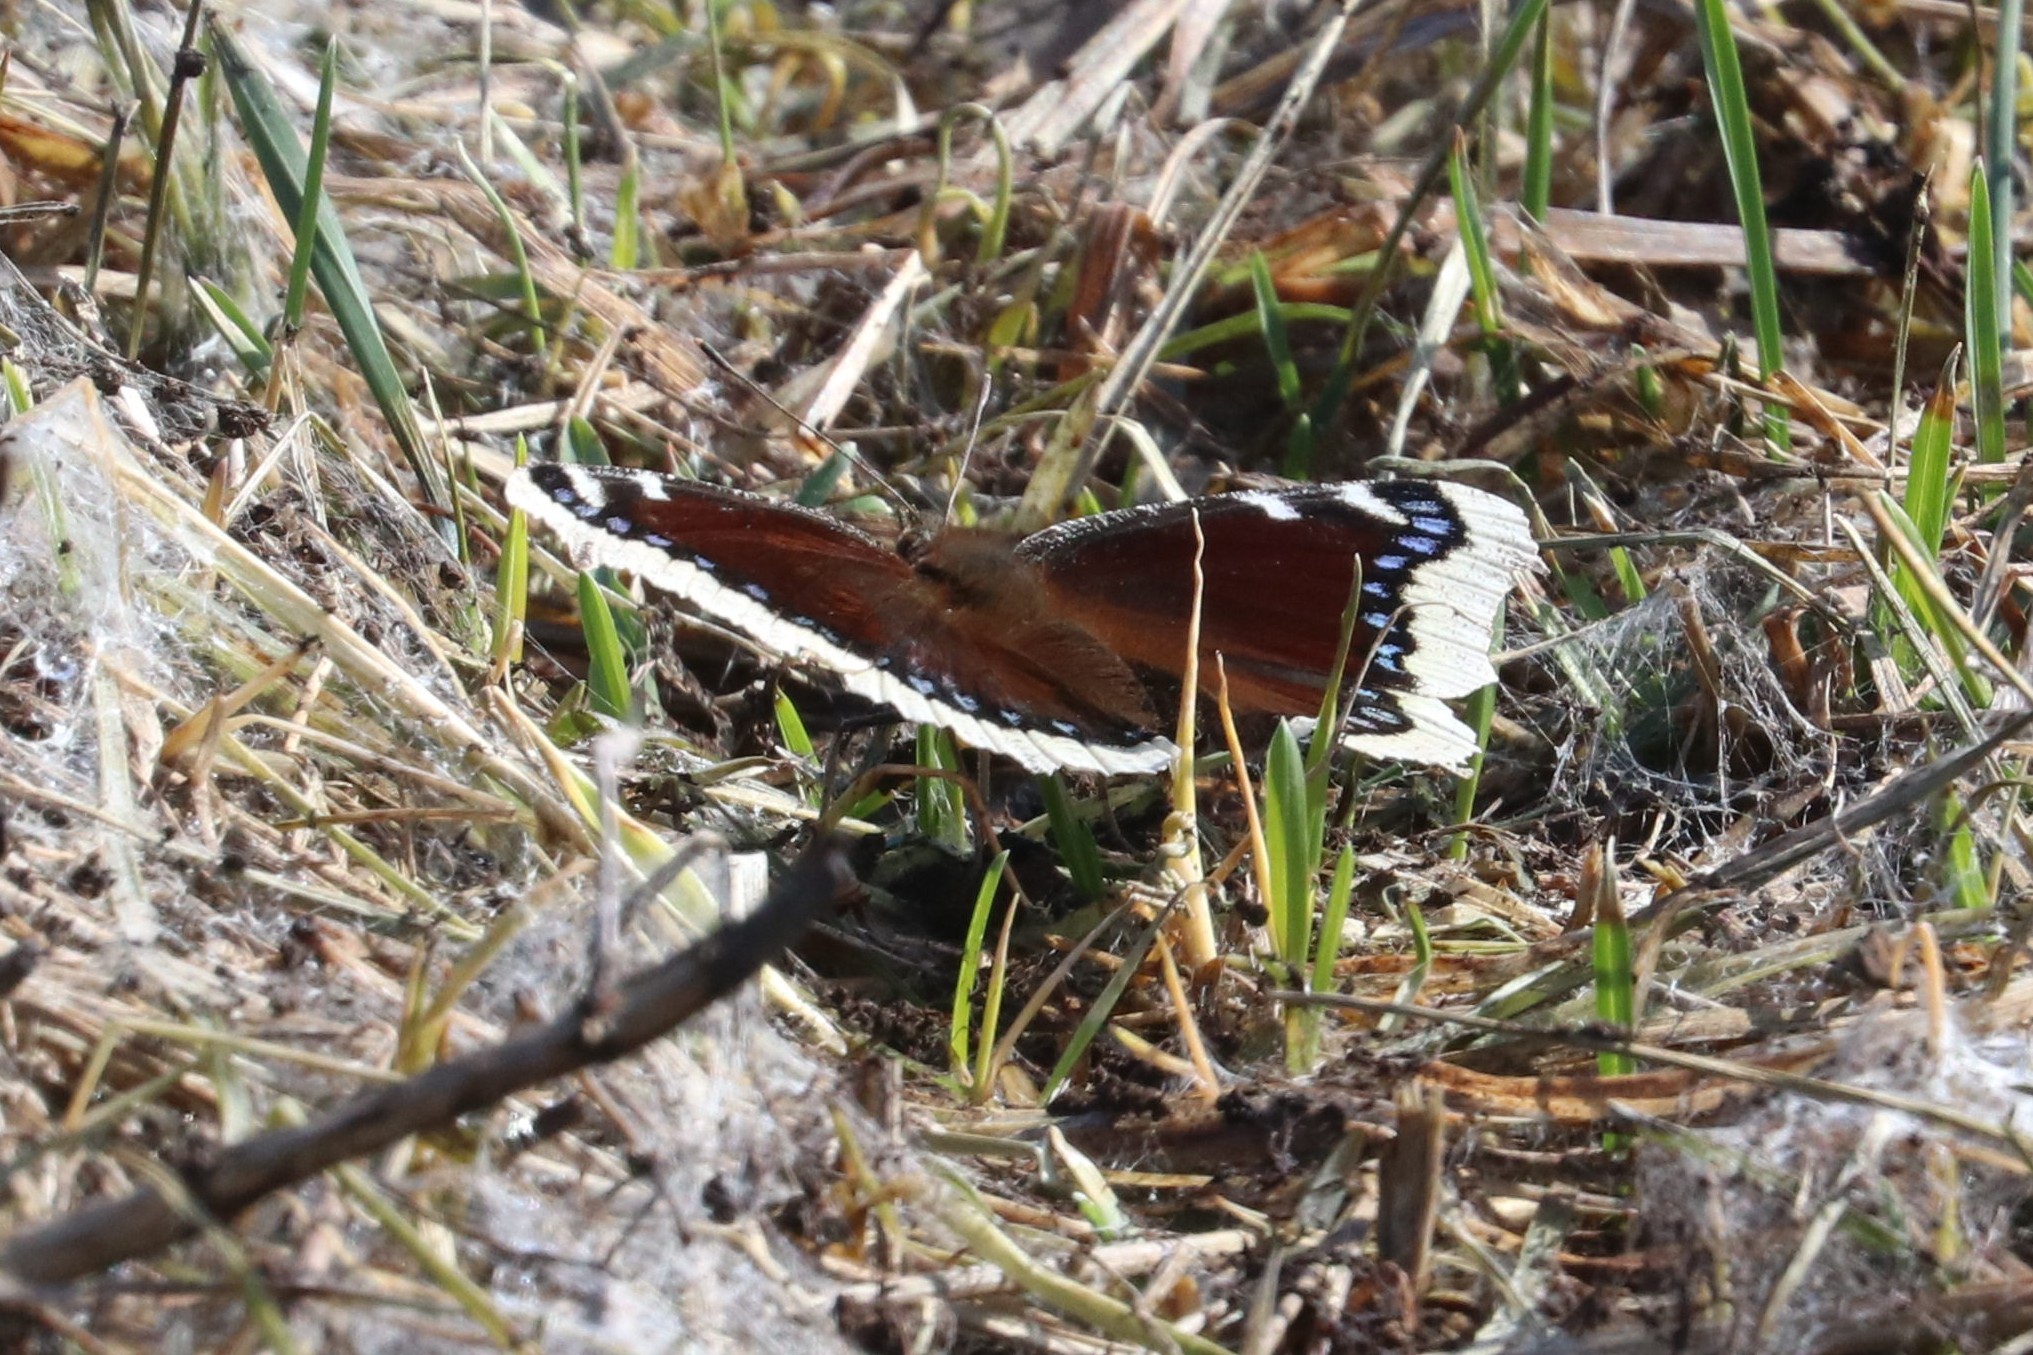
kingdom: Animalia
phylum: Arthropoda
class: Insecta
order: Lepidoptera
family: Nymphalidae
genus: Nymphalis
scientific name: Nymphalis antiopa
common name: Camberwell beauty
